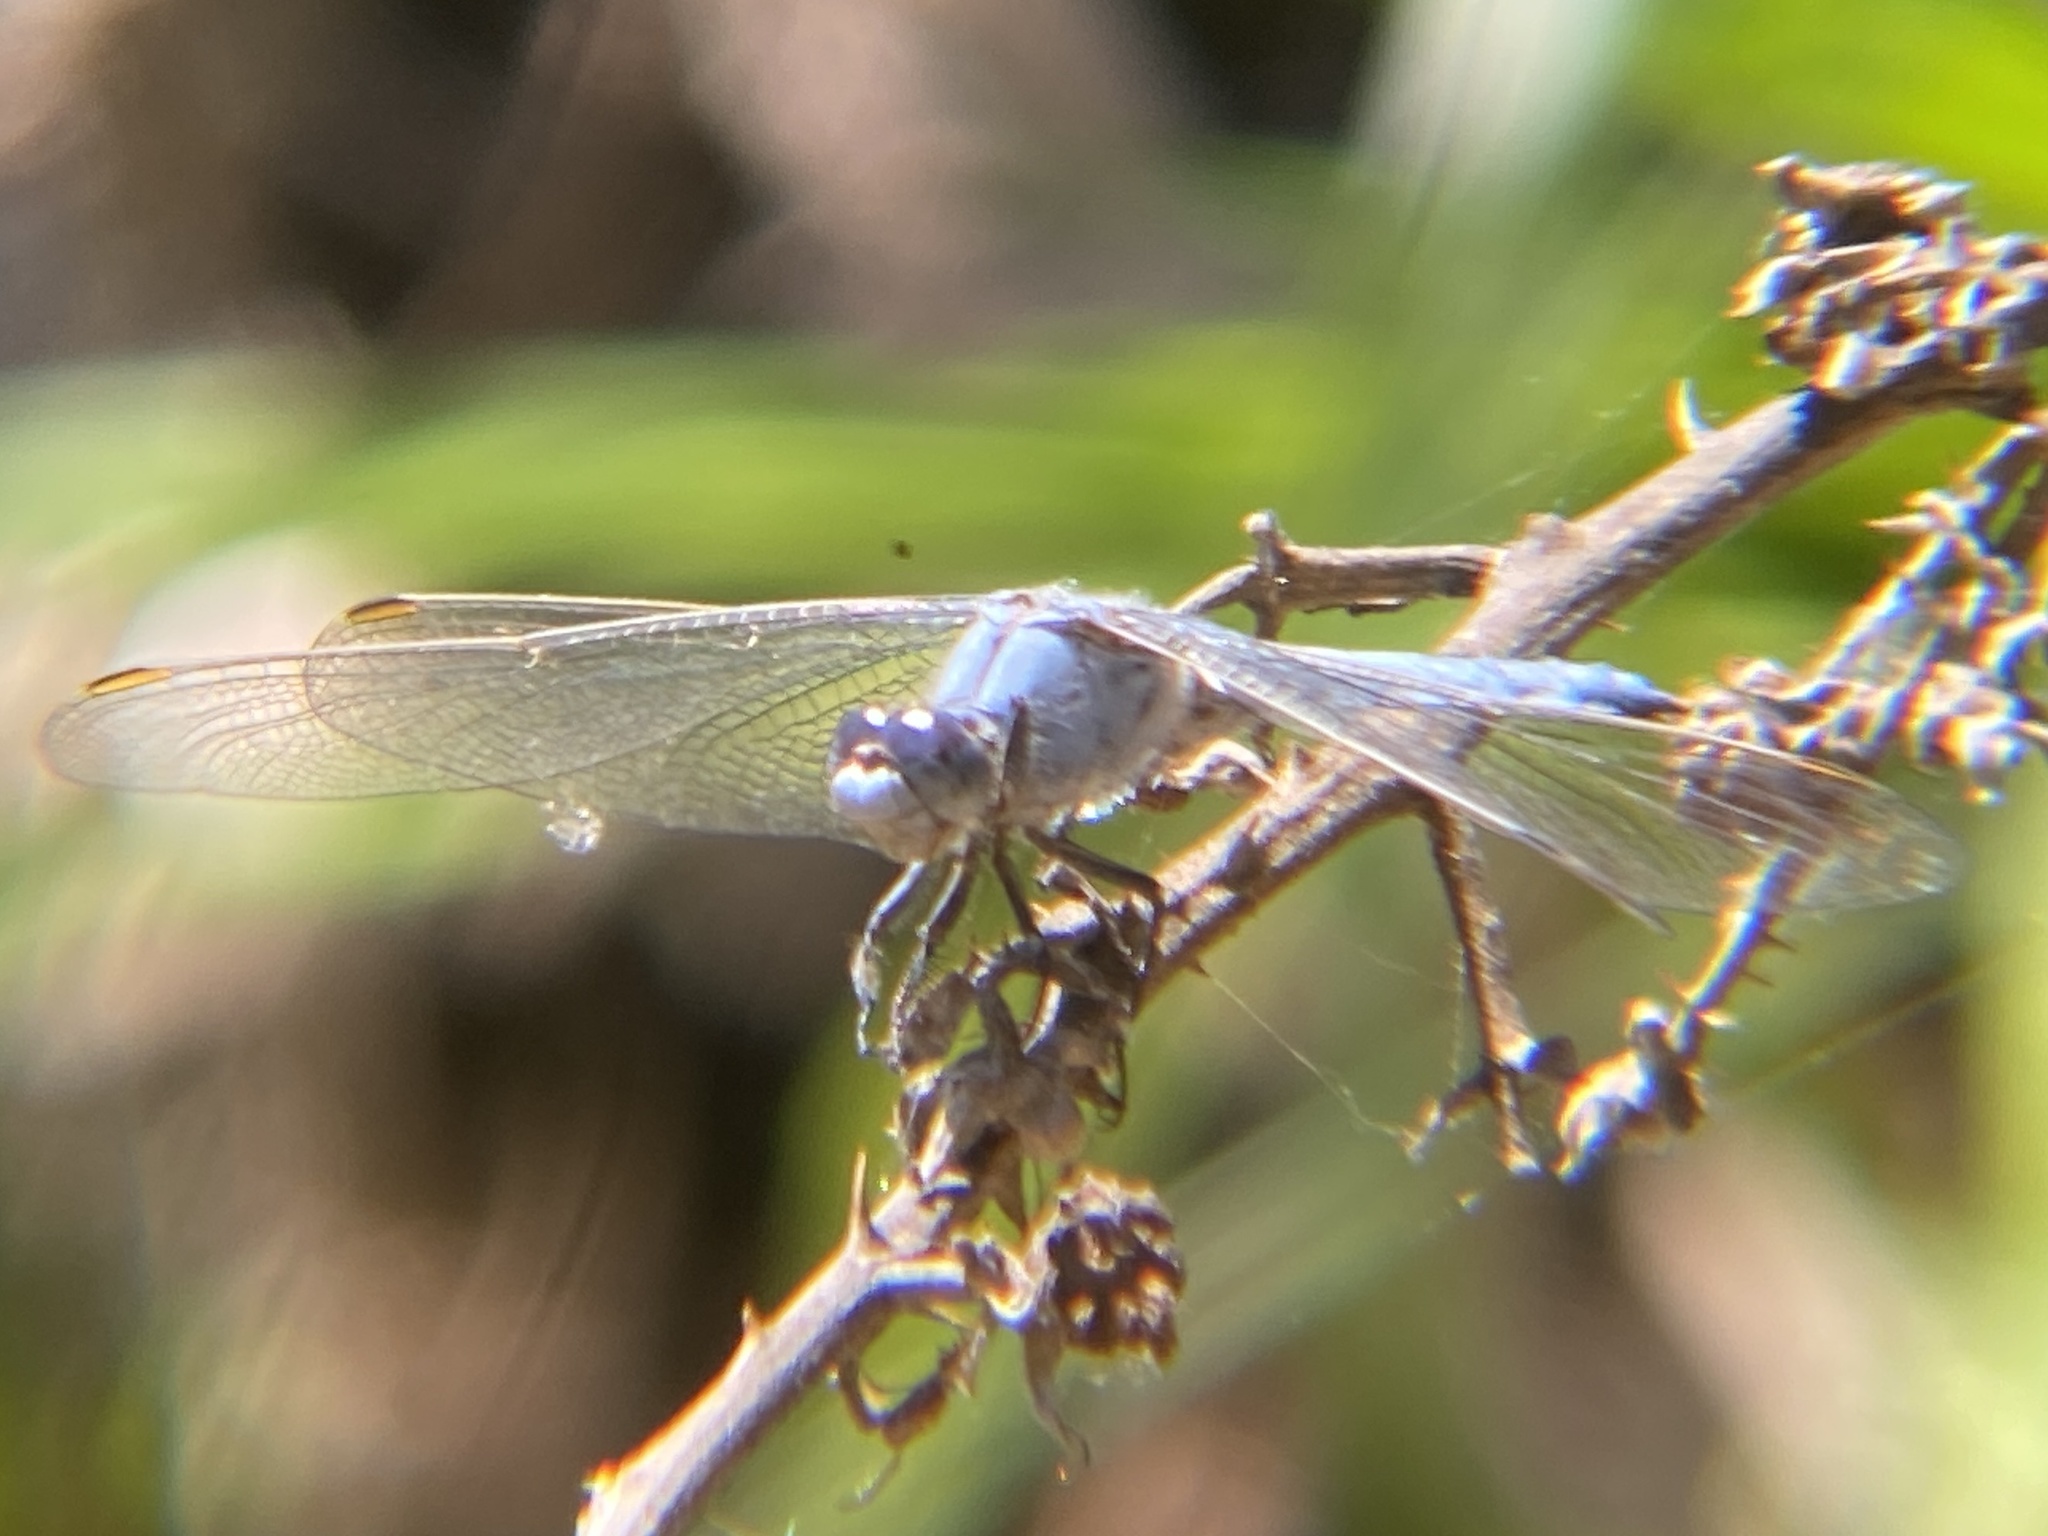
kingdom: Animalia
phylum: Arthropoda
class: Insecta
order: Odonata
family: Libellulidae
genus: Orthetrum
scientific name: Orthetrum brunneum
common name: Southern skimmer
